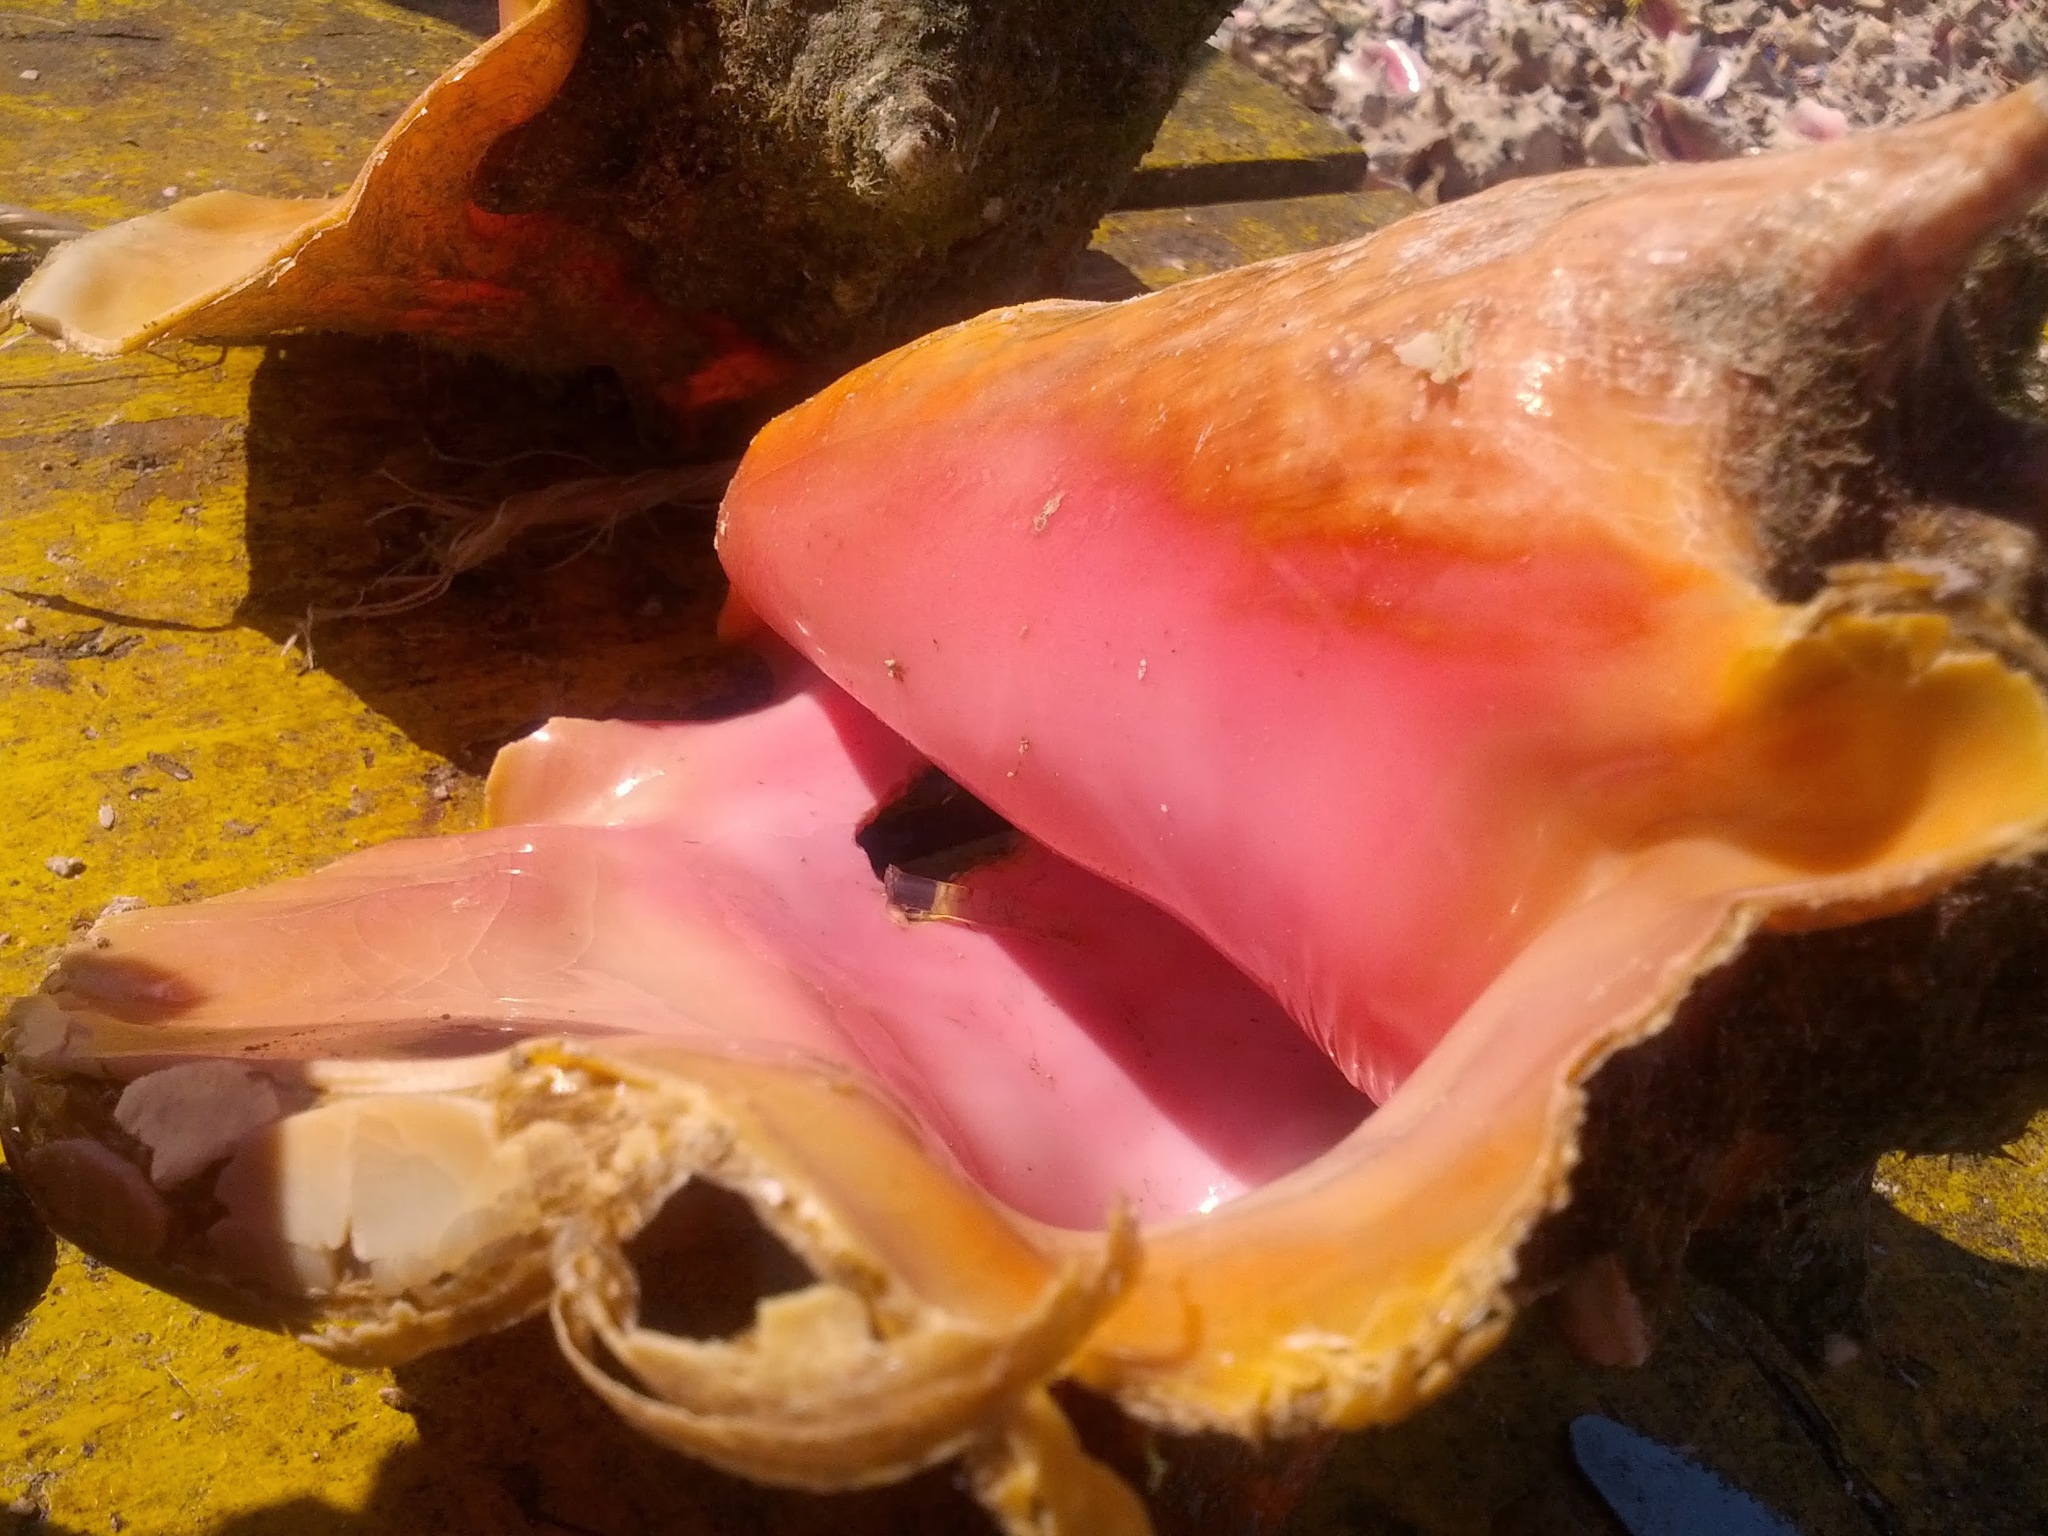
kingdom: Animalia
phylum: Mollusca
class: Gastropoda
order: Littorinimorpha
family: Strombidae
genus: Aliger
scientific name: Aliger gigas
